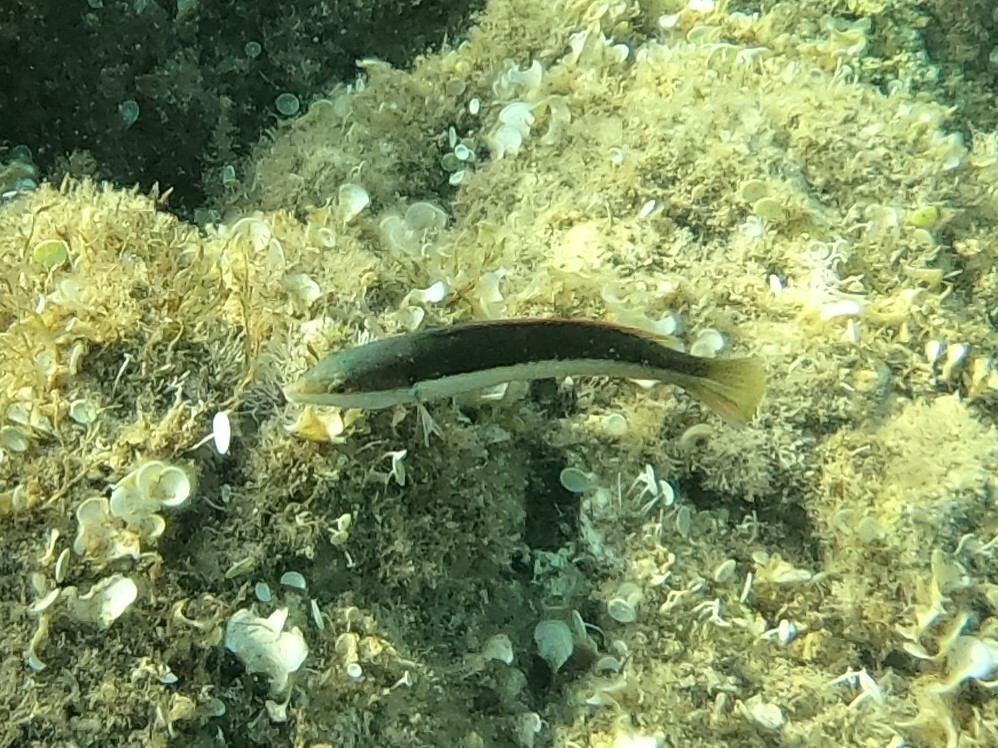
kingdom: Animalia
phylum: Chordata
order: Perciformes
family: Labridae
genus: Coris
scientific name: Coris julis
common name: Rainbow wrasse
